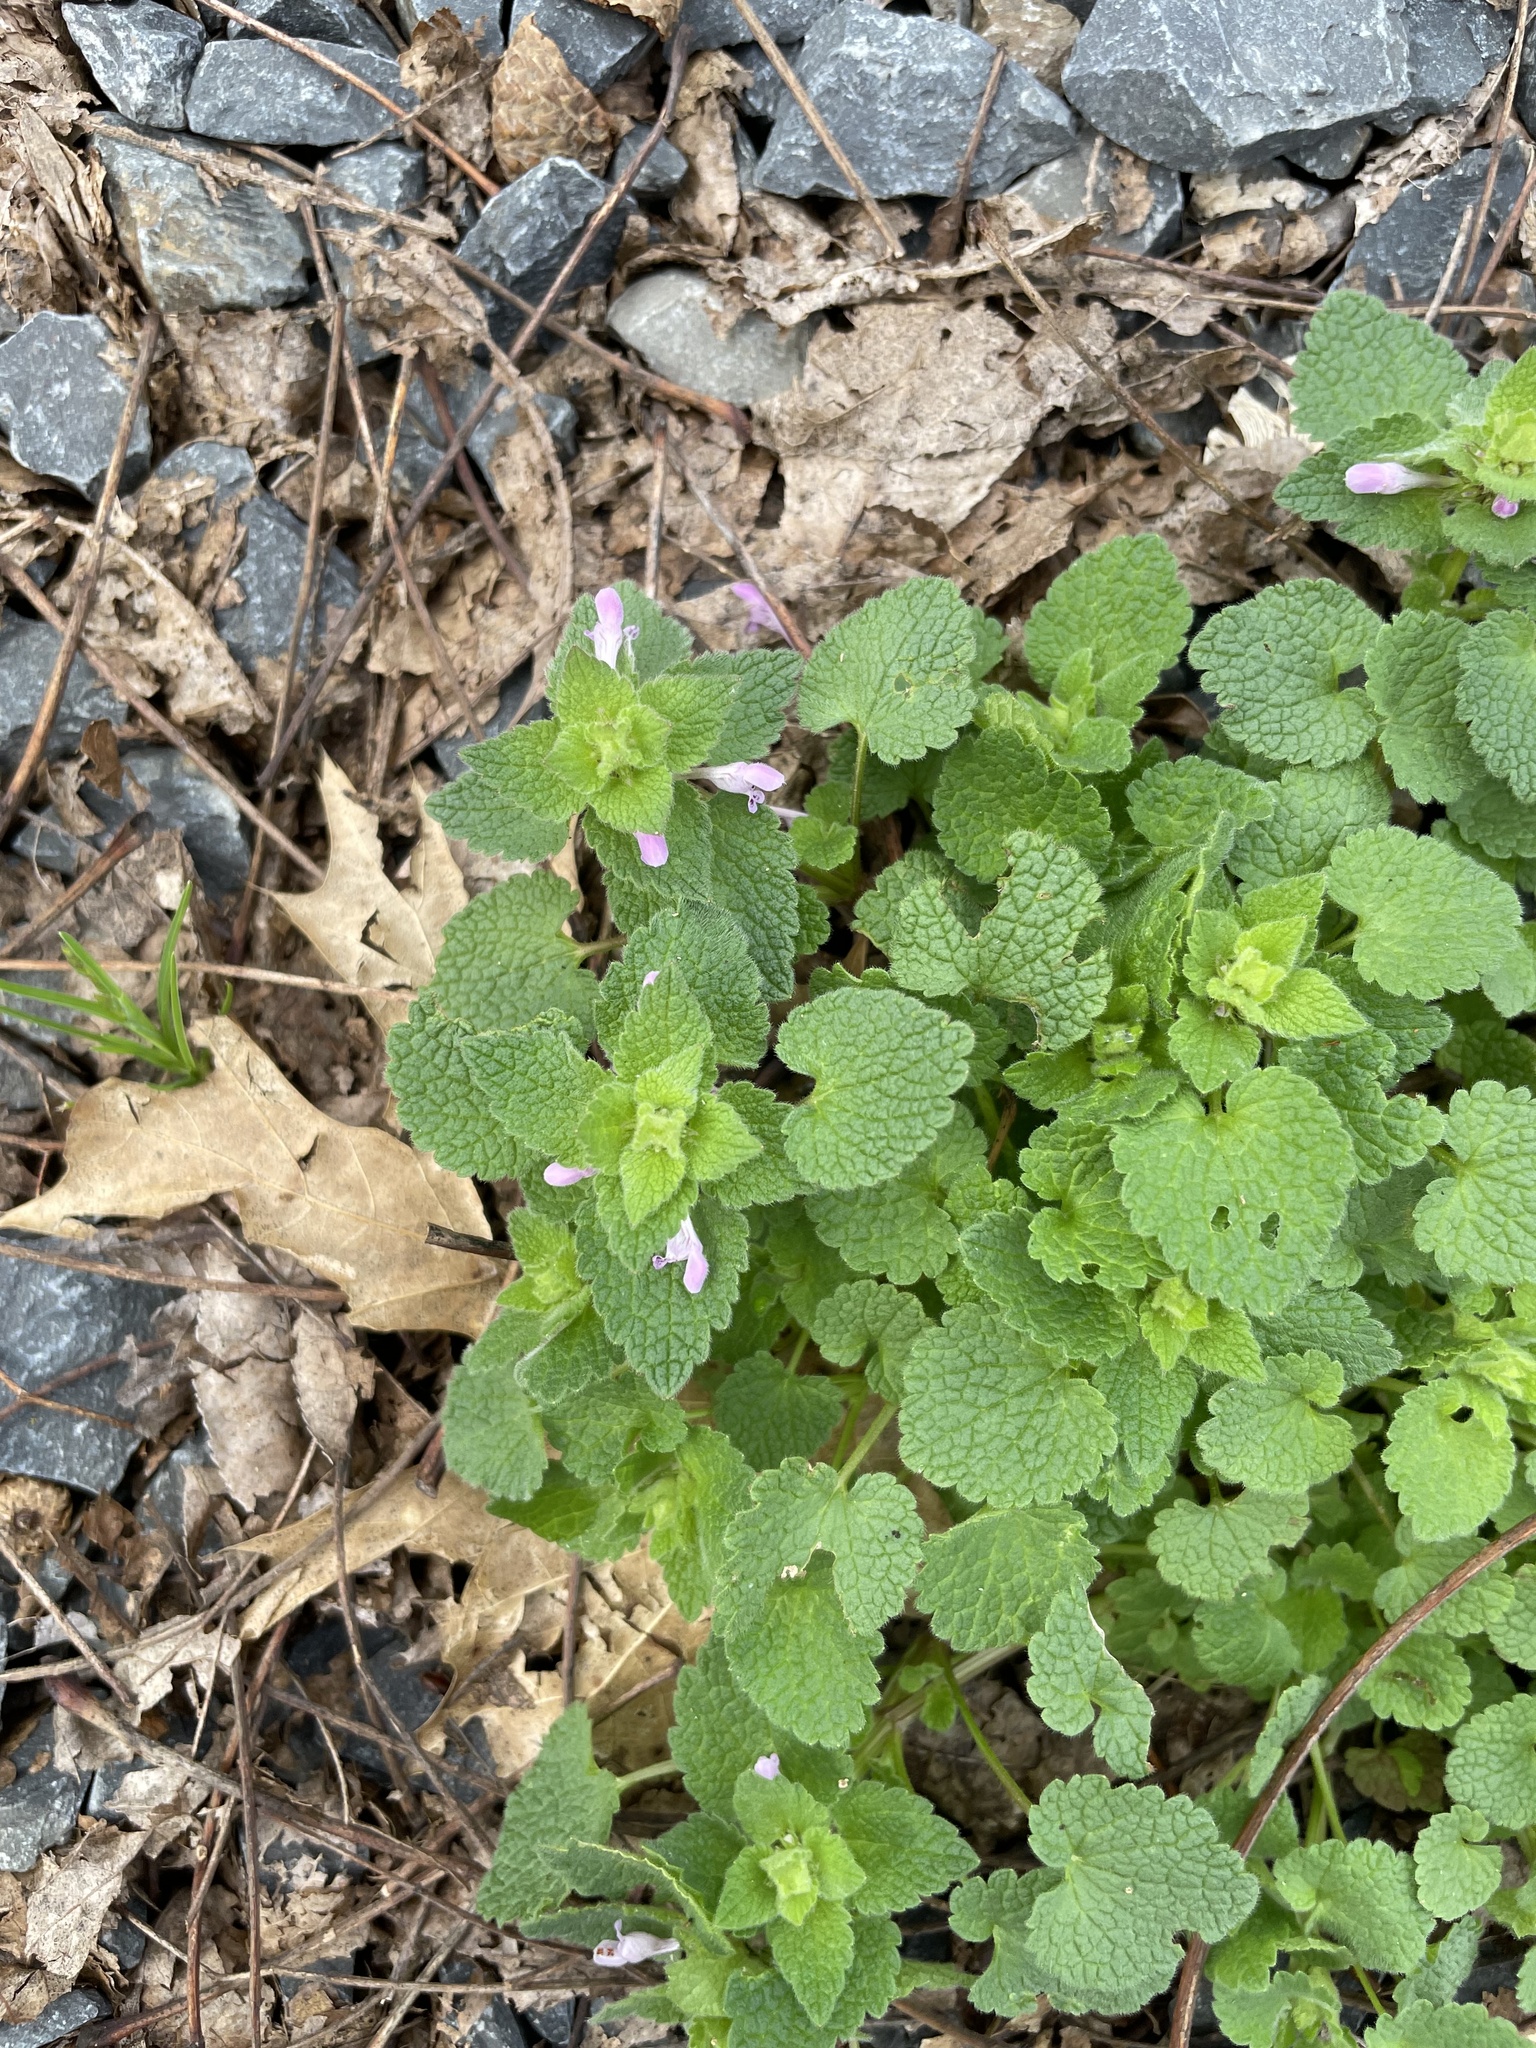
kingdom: Plantae
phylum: Tracheophyta
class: Magnoliopsida
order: Lamiales
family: Lamiaceae
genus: Lamium
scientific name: Lamium purpureum
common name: Red dead-nettle
